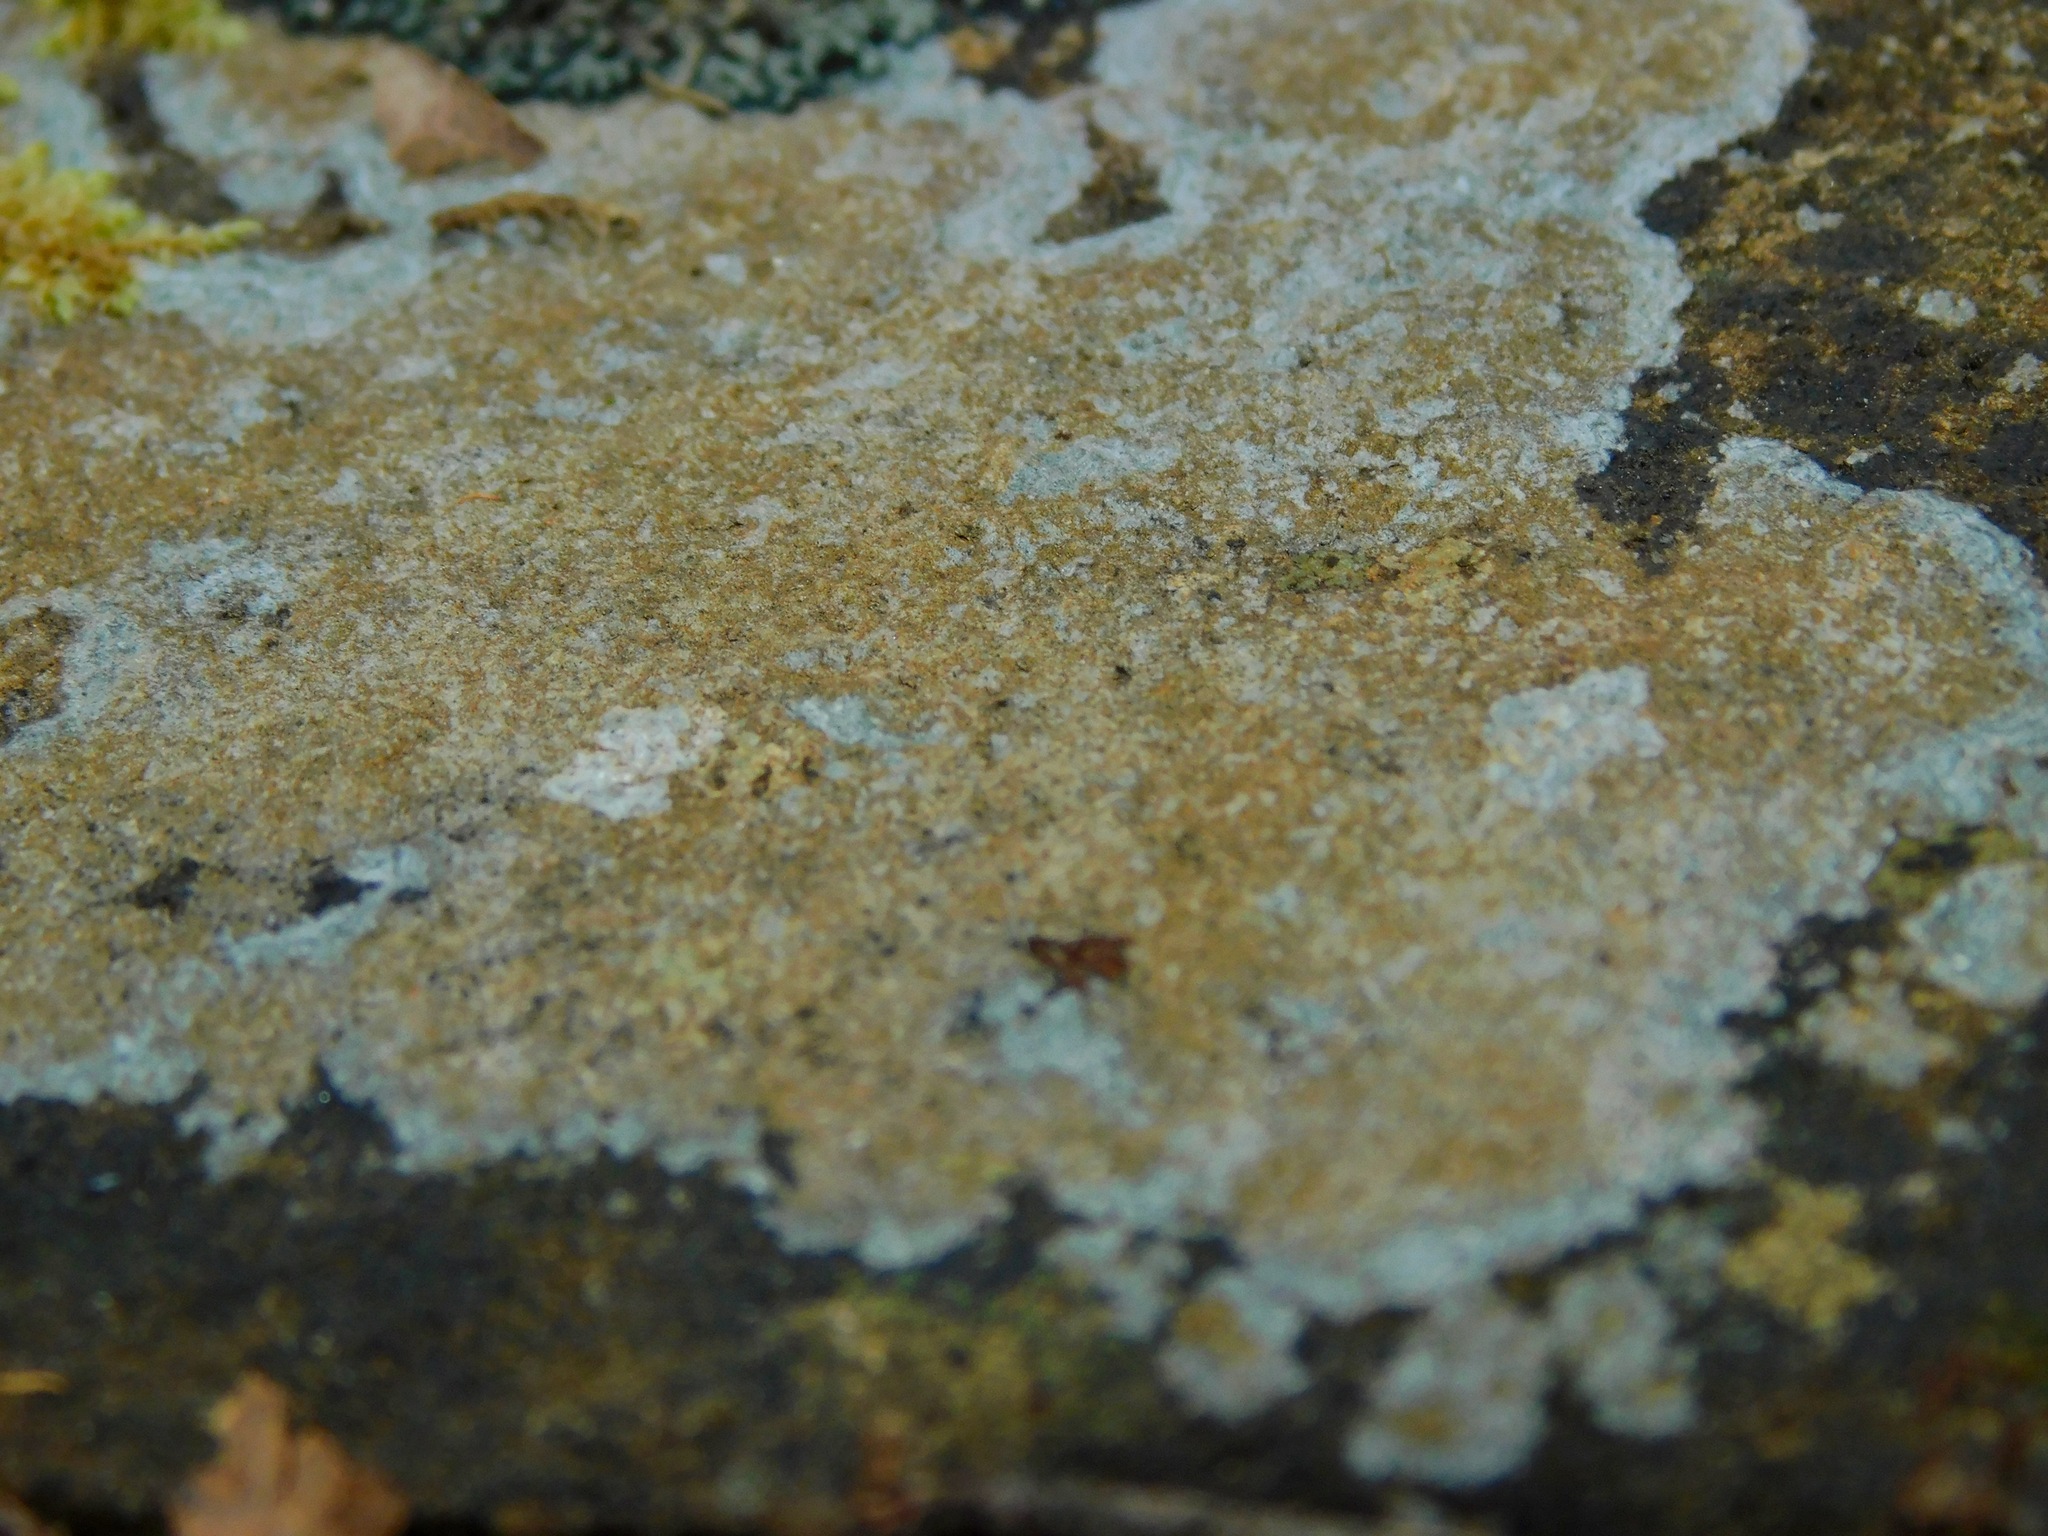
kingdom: Fungi
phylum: Ascomycota
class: Lecanoromycetes
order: Lecideales
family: Lecideaceae
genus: Porpidia
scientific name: Porpidia ochrolemma
